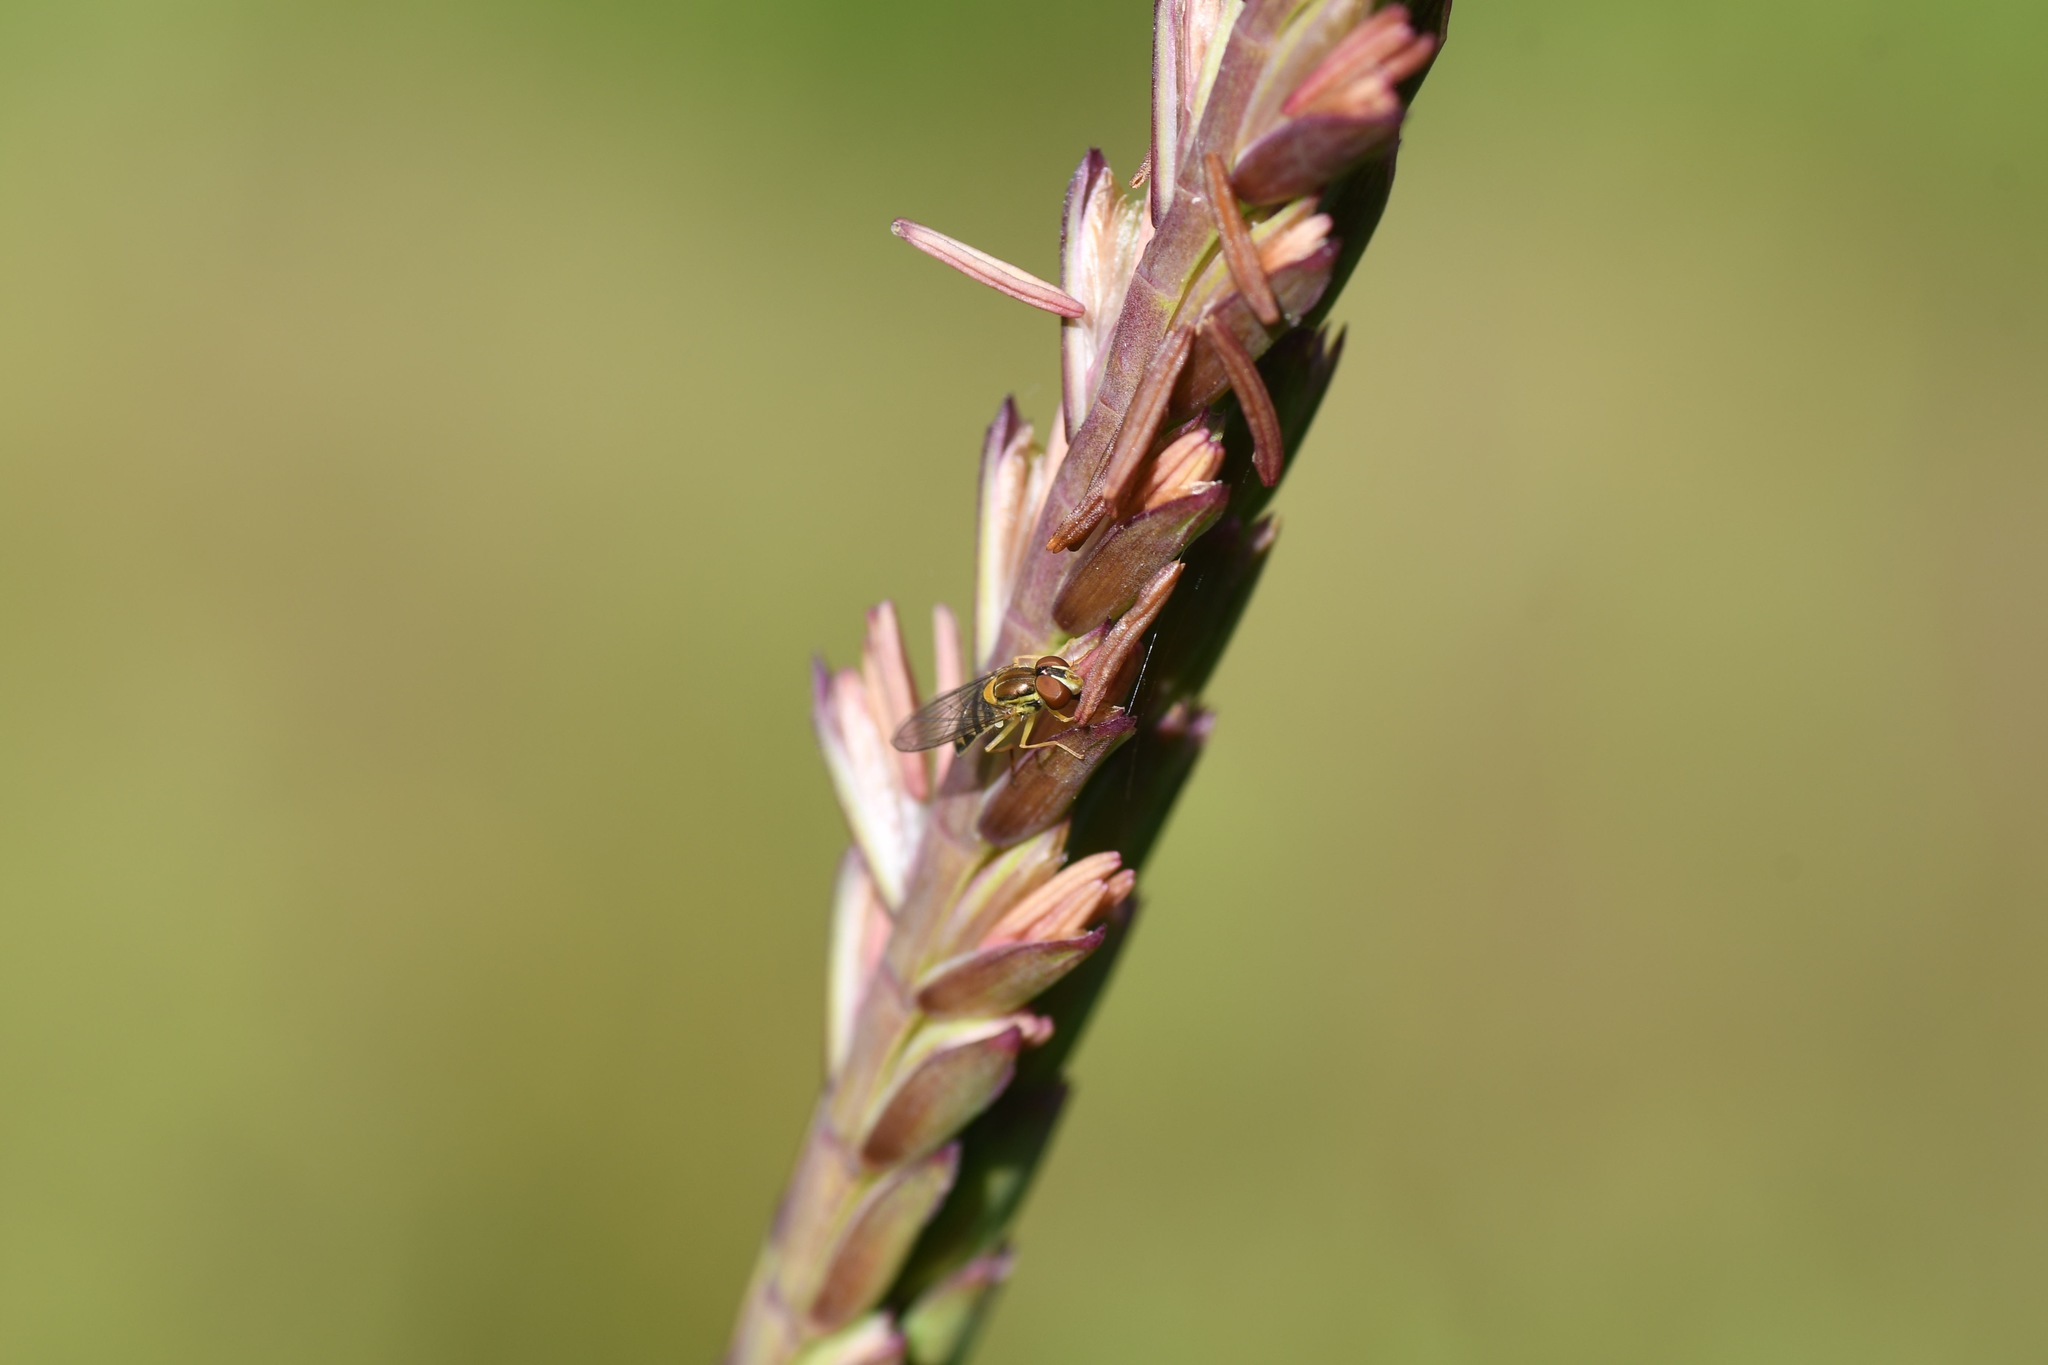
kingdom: Animalia
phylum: Arthropoda
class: Insecta
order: Diptera
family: Syrphidae
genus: Toxomerus
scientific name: Toxomerus marginatus
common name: Syrphid fly
